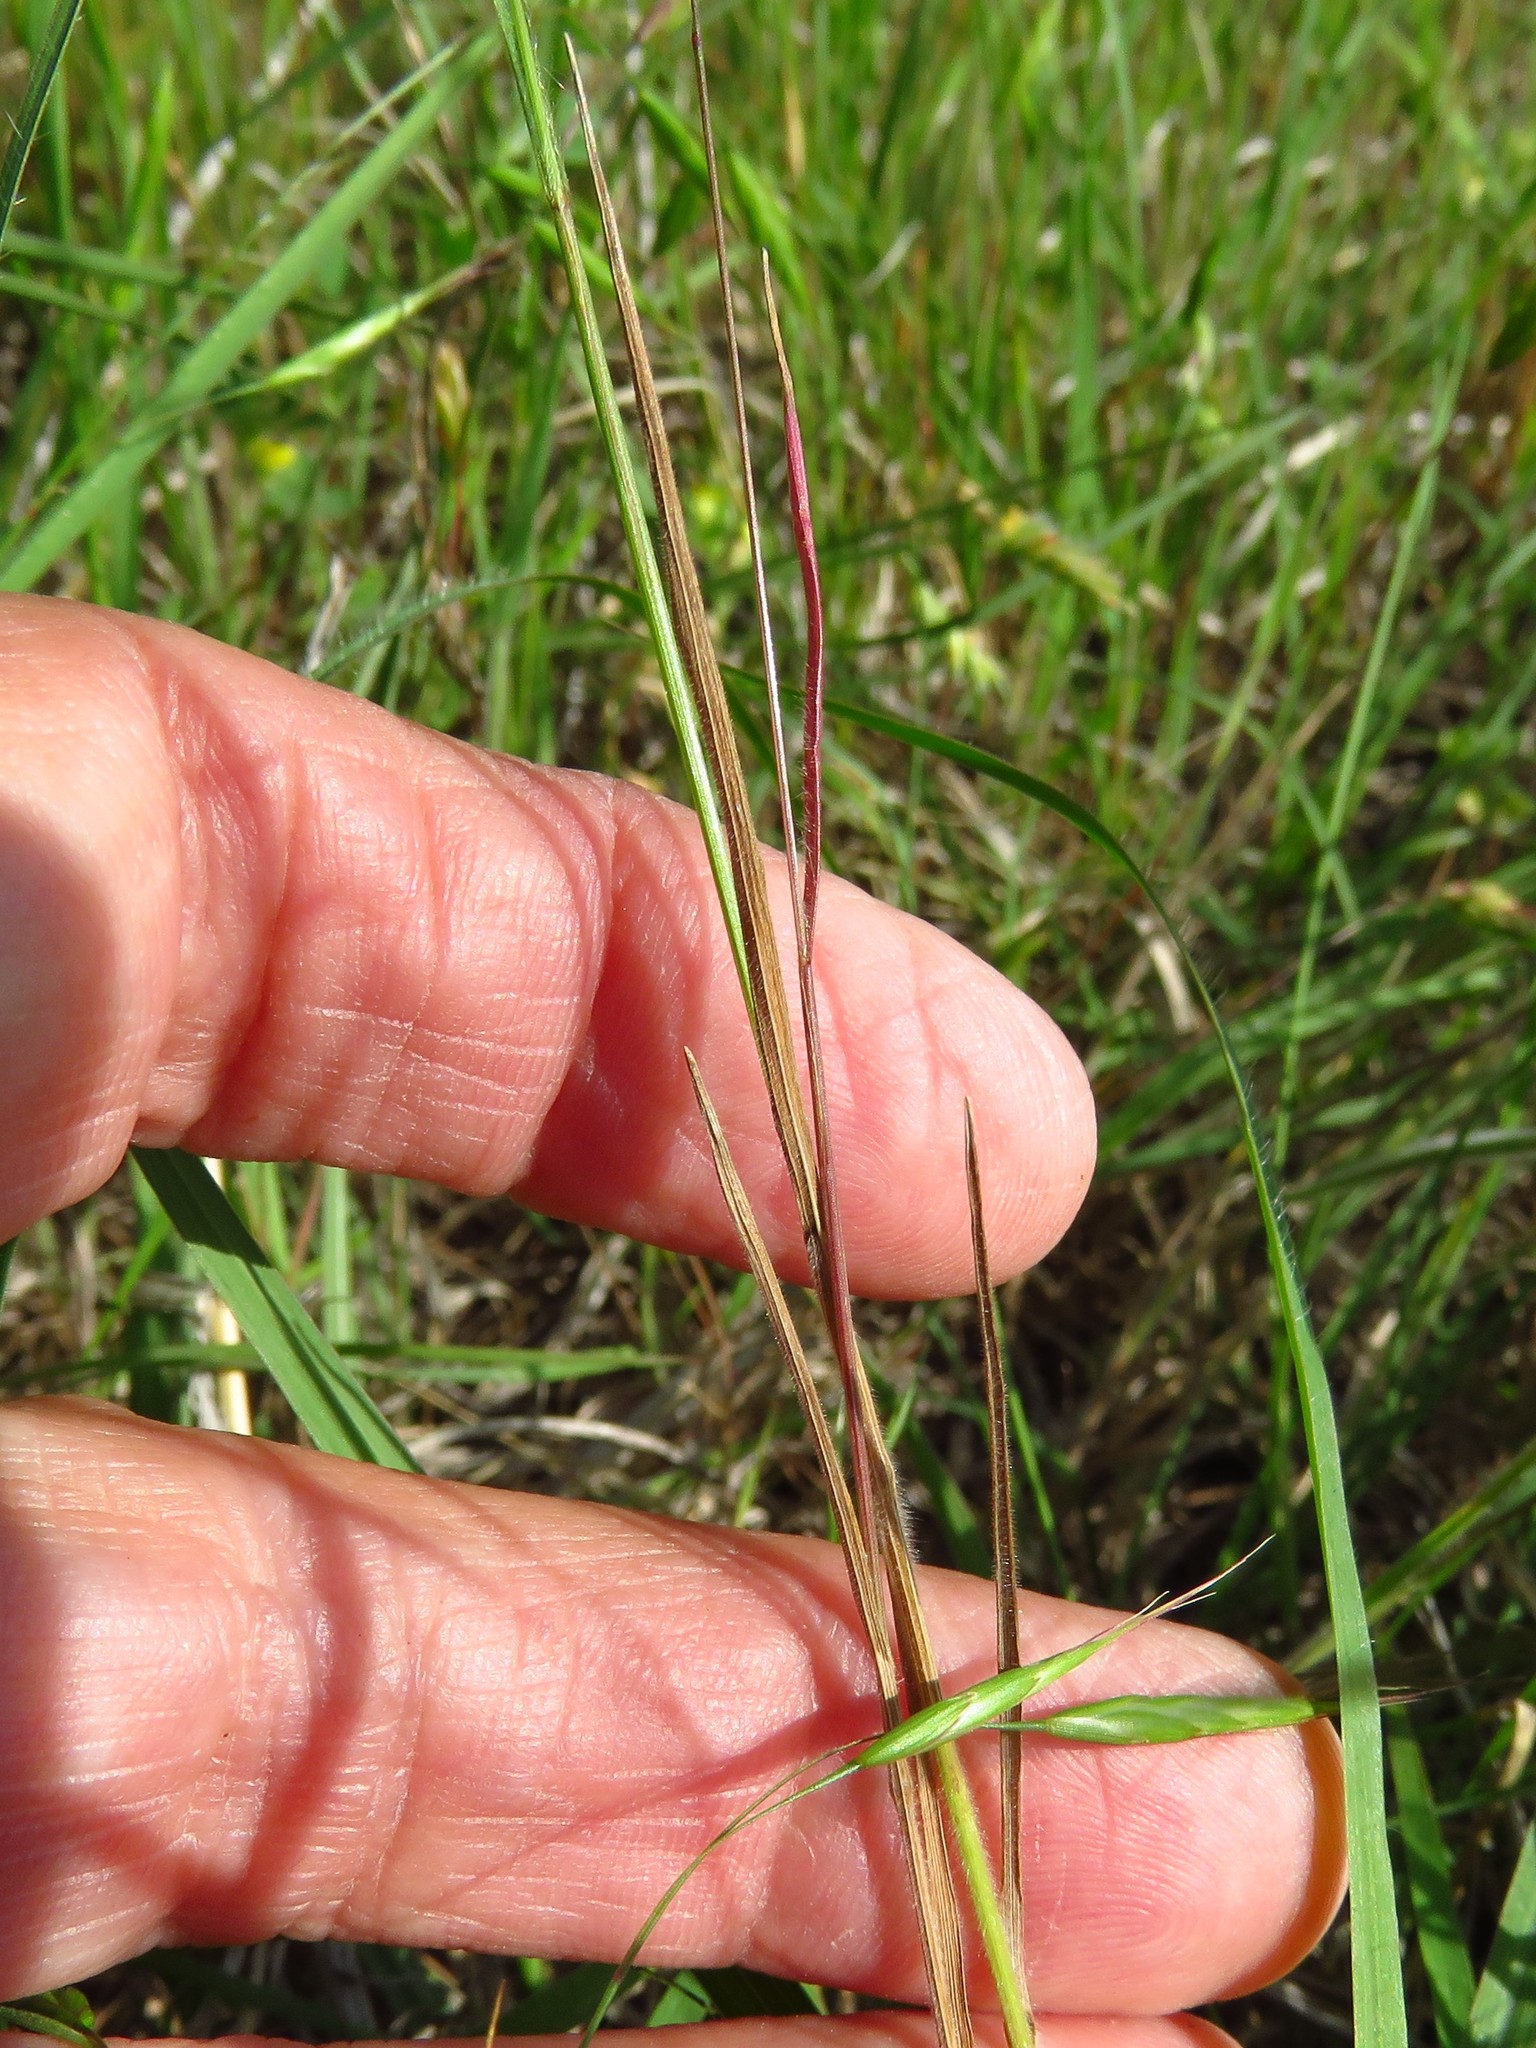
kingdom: Plantae
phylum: Tracheophyta
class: Liliopsida
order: Poales
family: Poaceae
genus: Bromus
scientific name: Bromus japonicus
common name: Japanese brome
